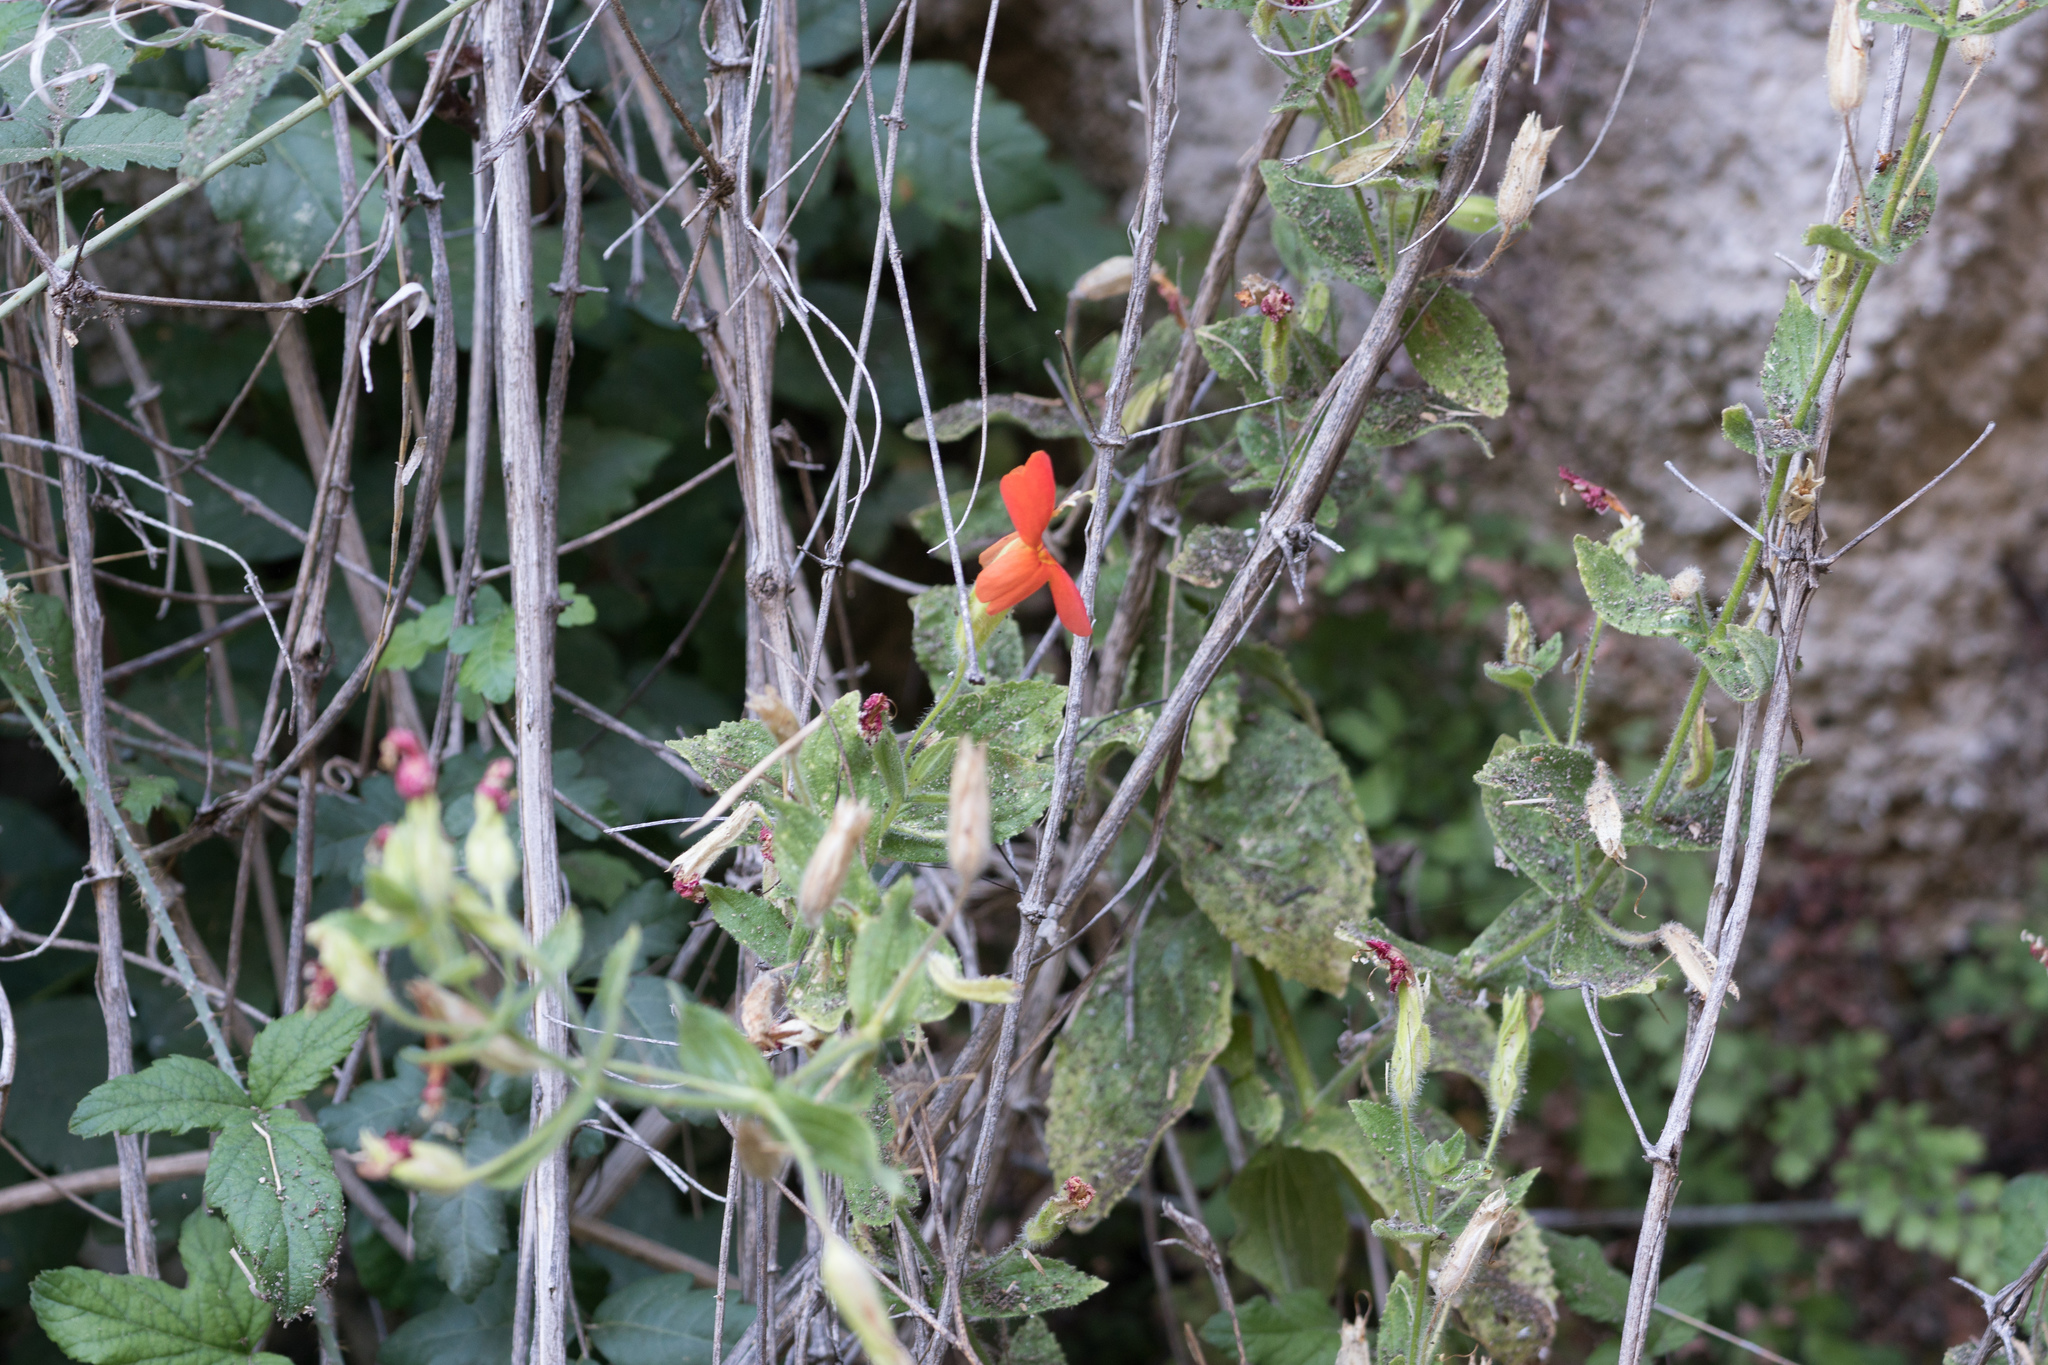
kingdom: Plantae
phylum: Tracheophyta
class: Magnoliopsida
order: Lamiales
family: Phrymaceae
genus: Erythranthe
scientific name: Erythranthe cardinalis
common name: Scarlet monkey-flower
